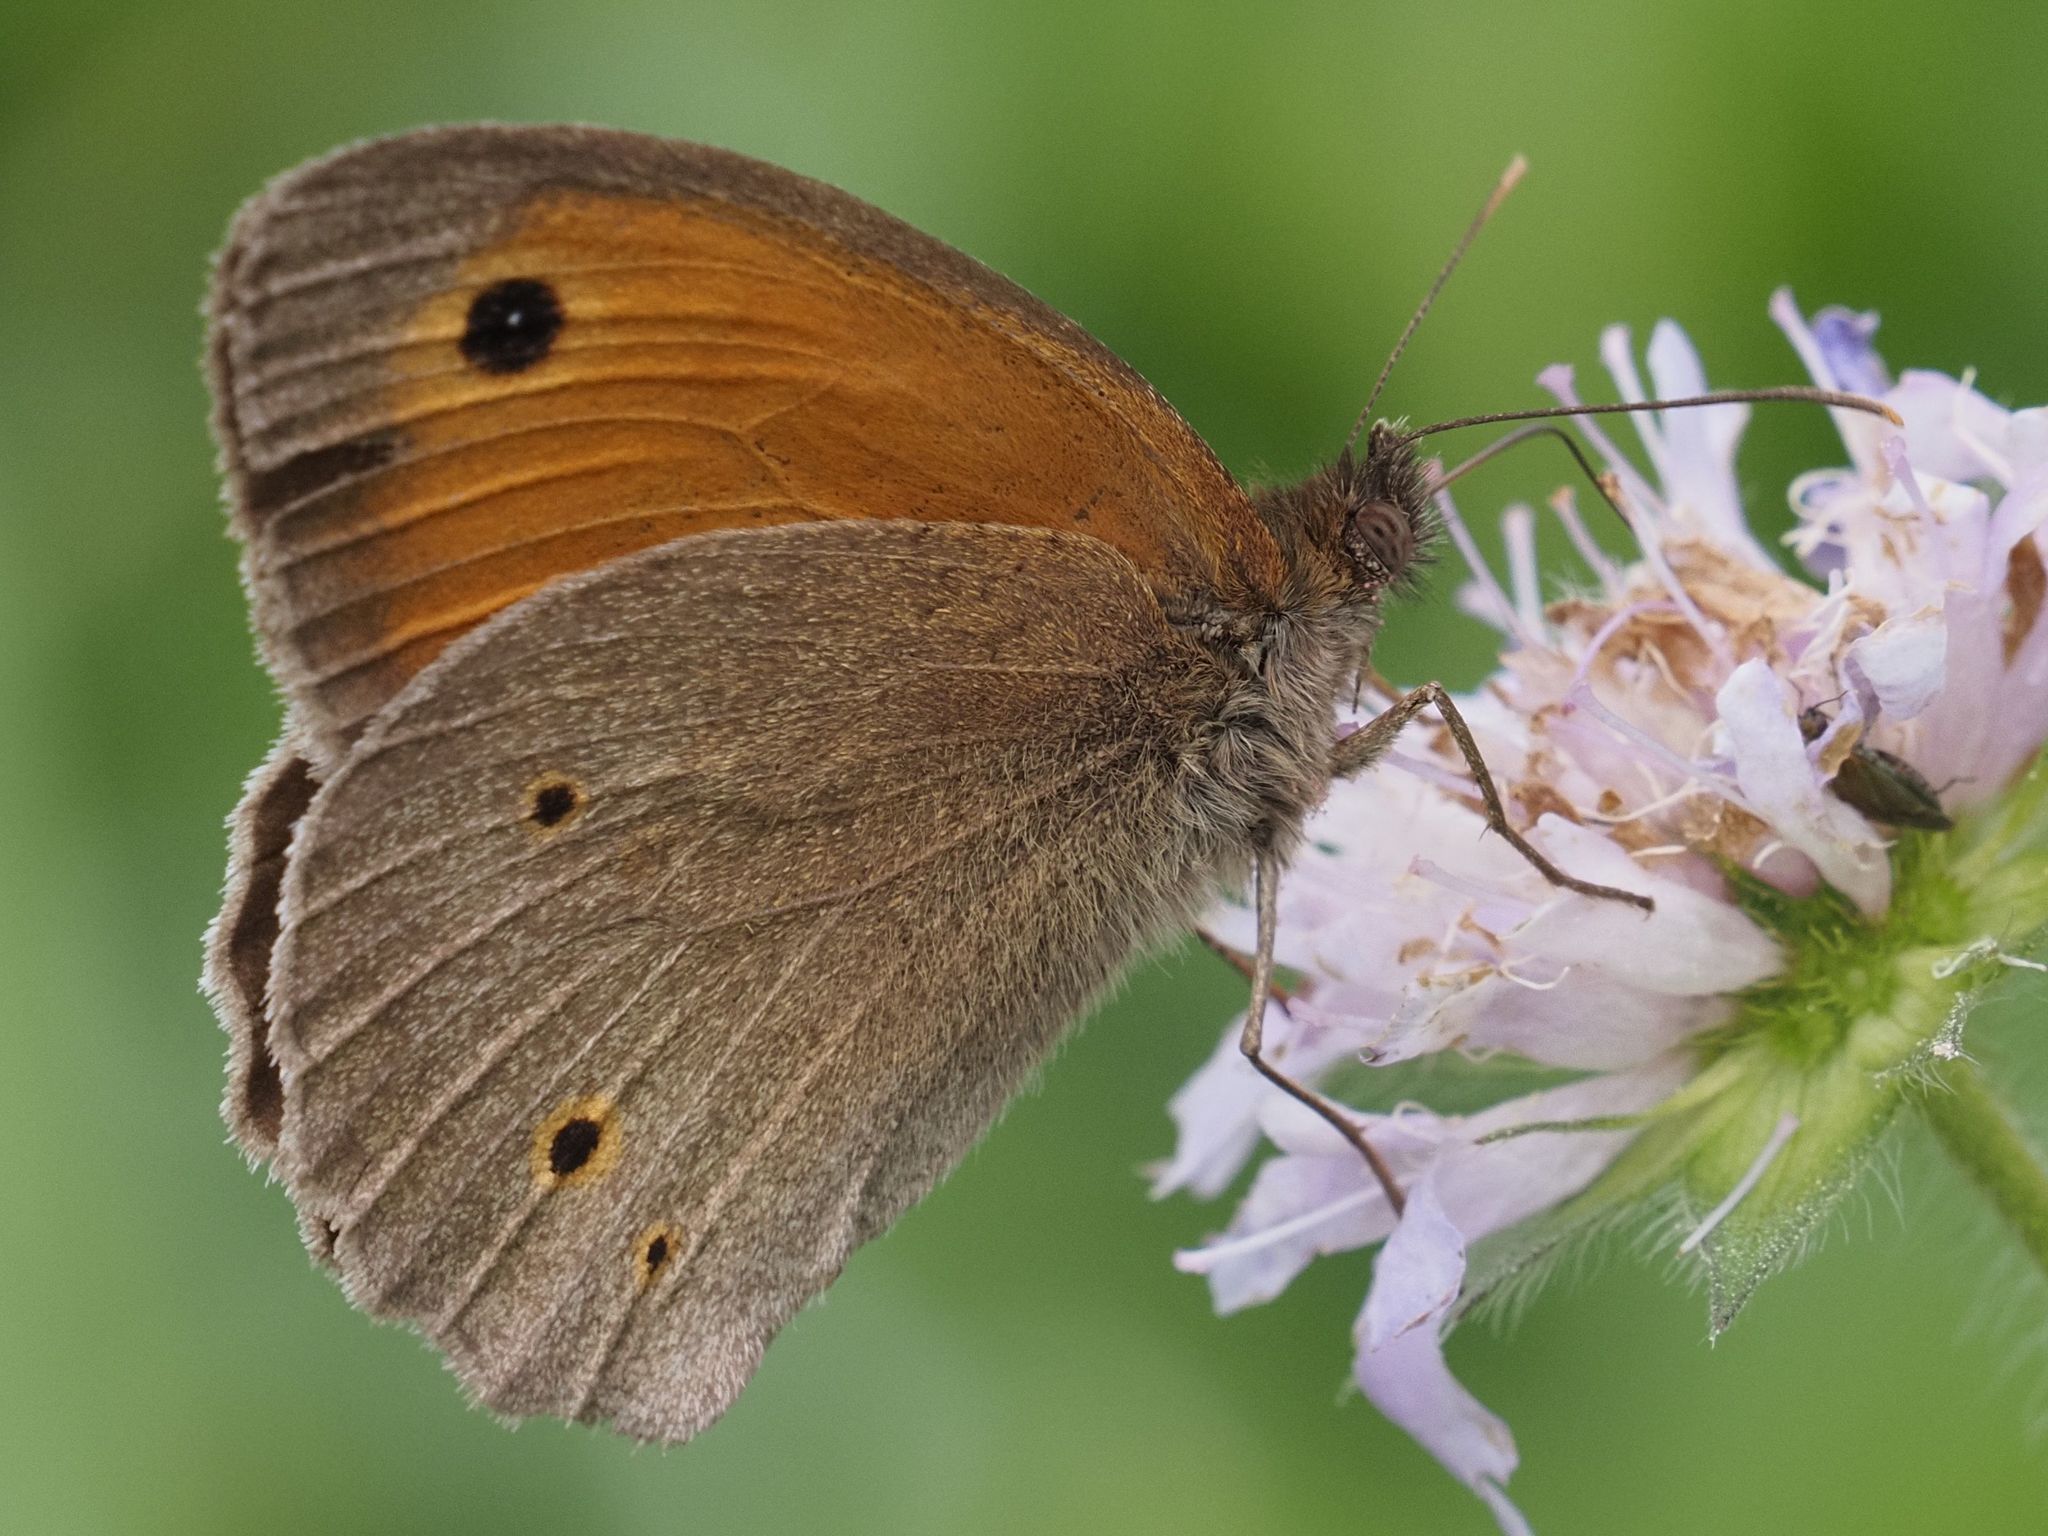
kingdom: Animalia
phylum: Arthropoda
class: Insecta
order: Lepidoptera
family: Nymphalidae
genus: Maniola
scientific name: Maniola jurtina
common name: Meadow brown
